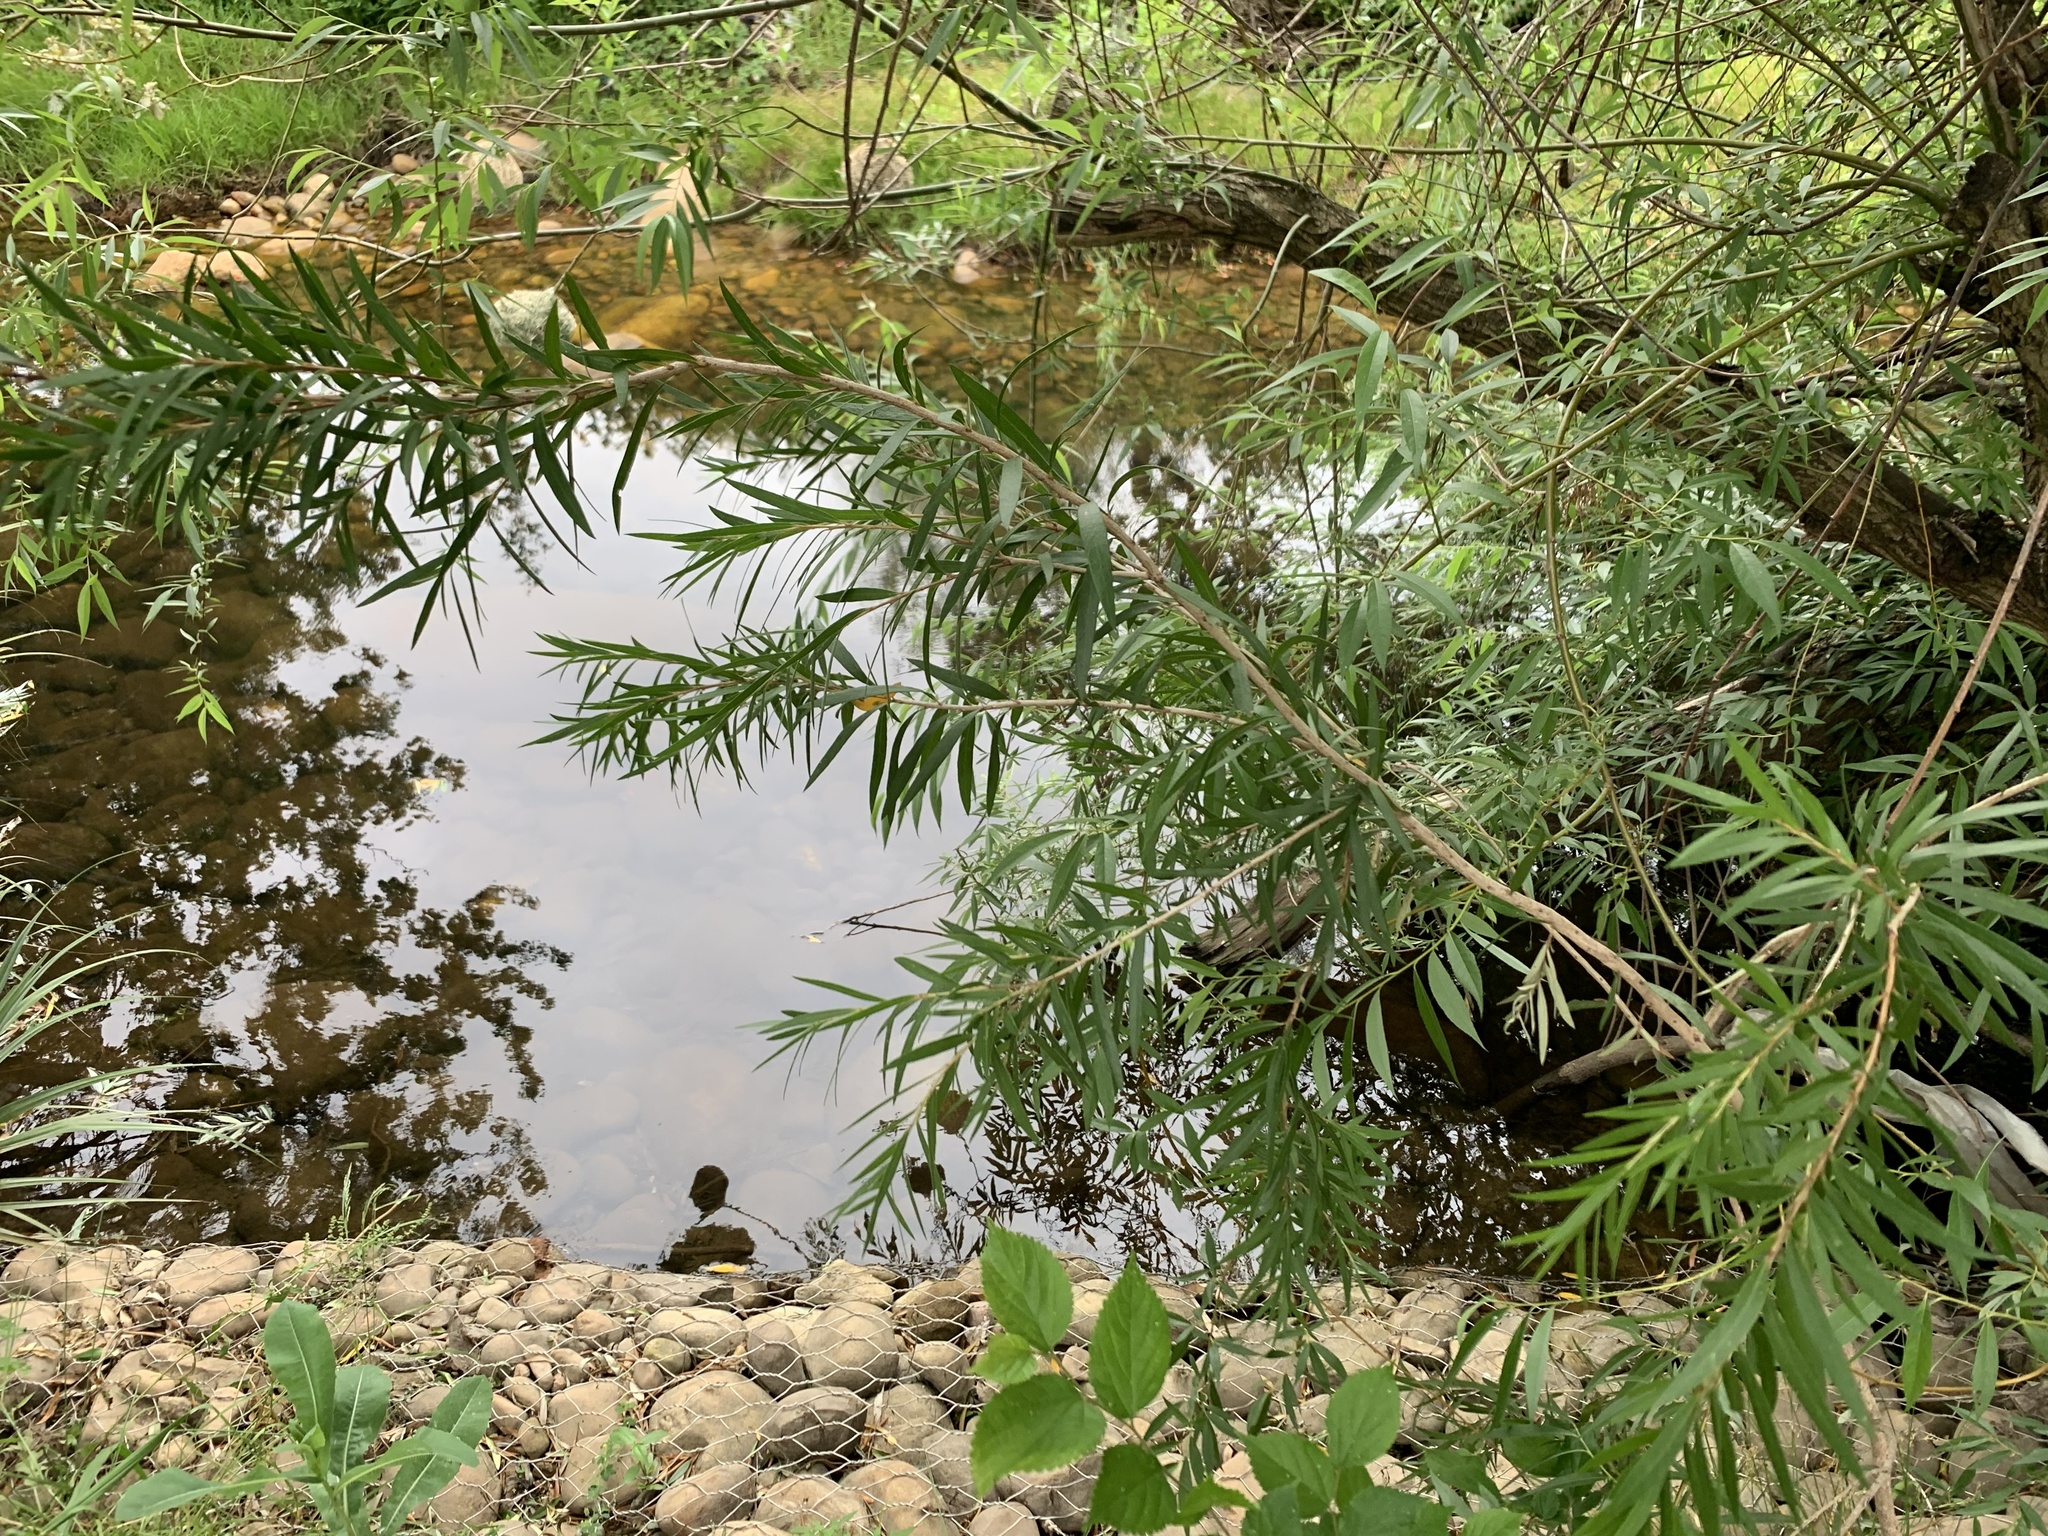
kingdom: Plantae
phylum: Tracheophyta
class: Magnoliopsida
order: Myrtales
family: Myrtaceae
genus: Callistemon
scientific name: Callistemon viminalis
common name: Drooping bottlebrush
